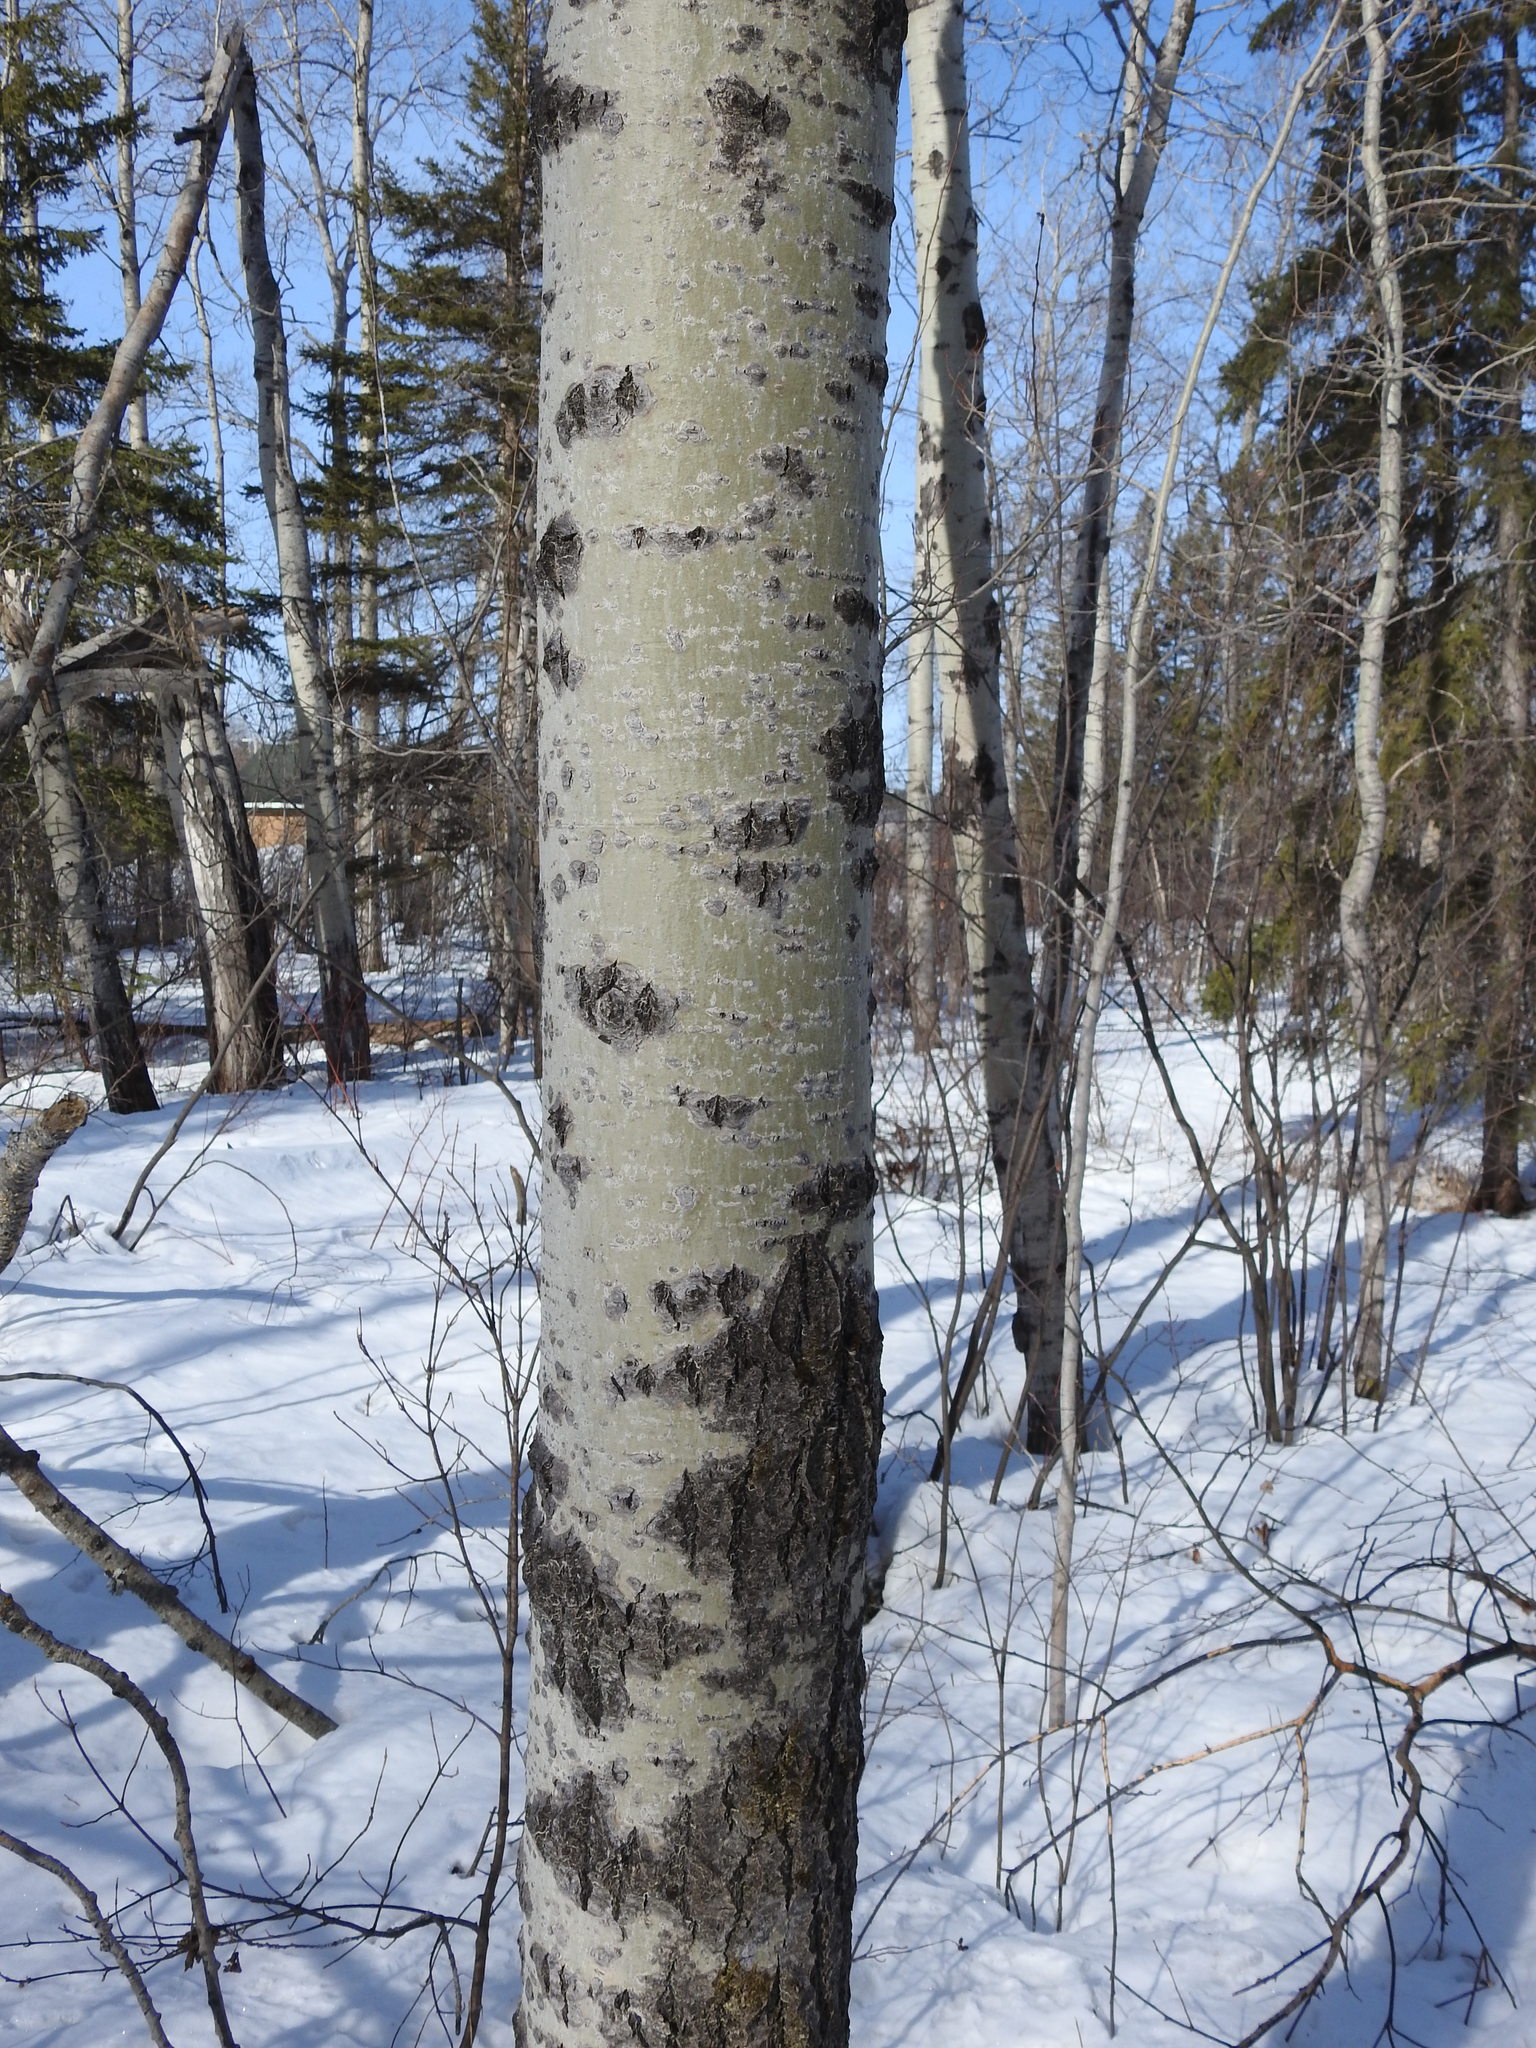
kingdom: Plantae
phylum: Tracheophyta
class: Magnoliopsida
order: Malpighiales
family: Salicaceae
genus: Populus
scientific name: Populus tremuloides
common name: Quaking aspen
